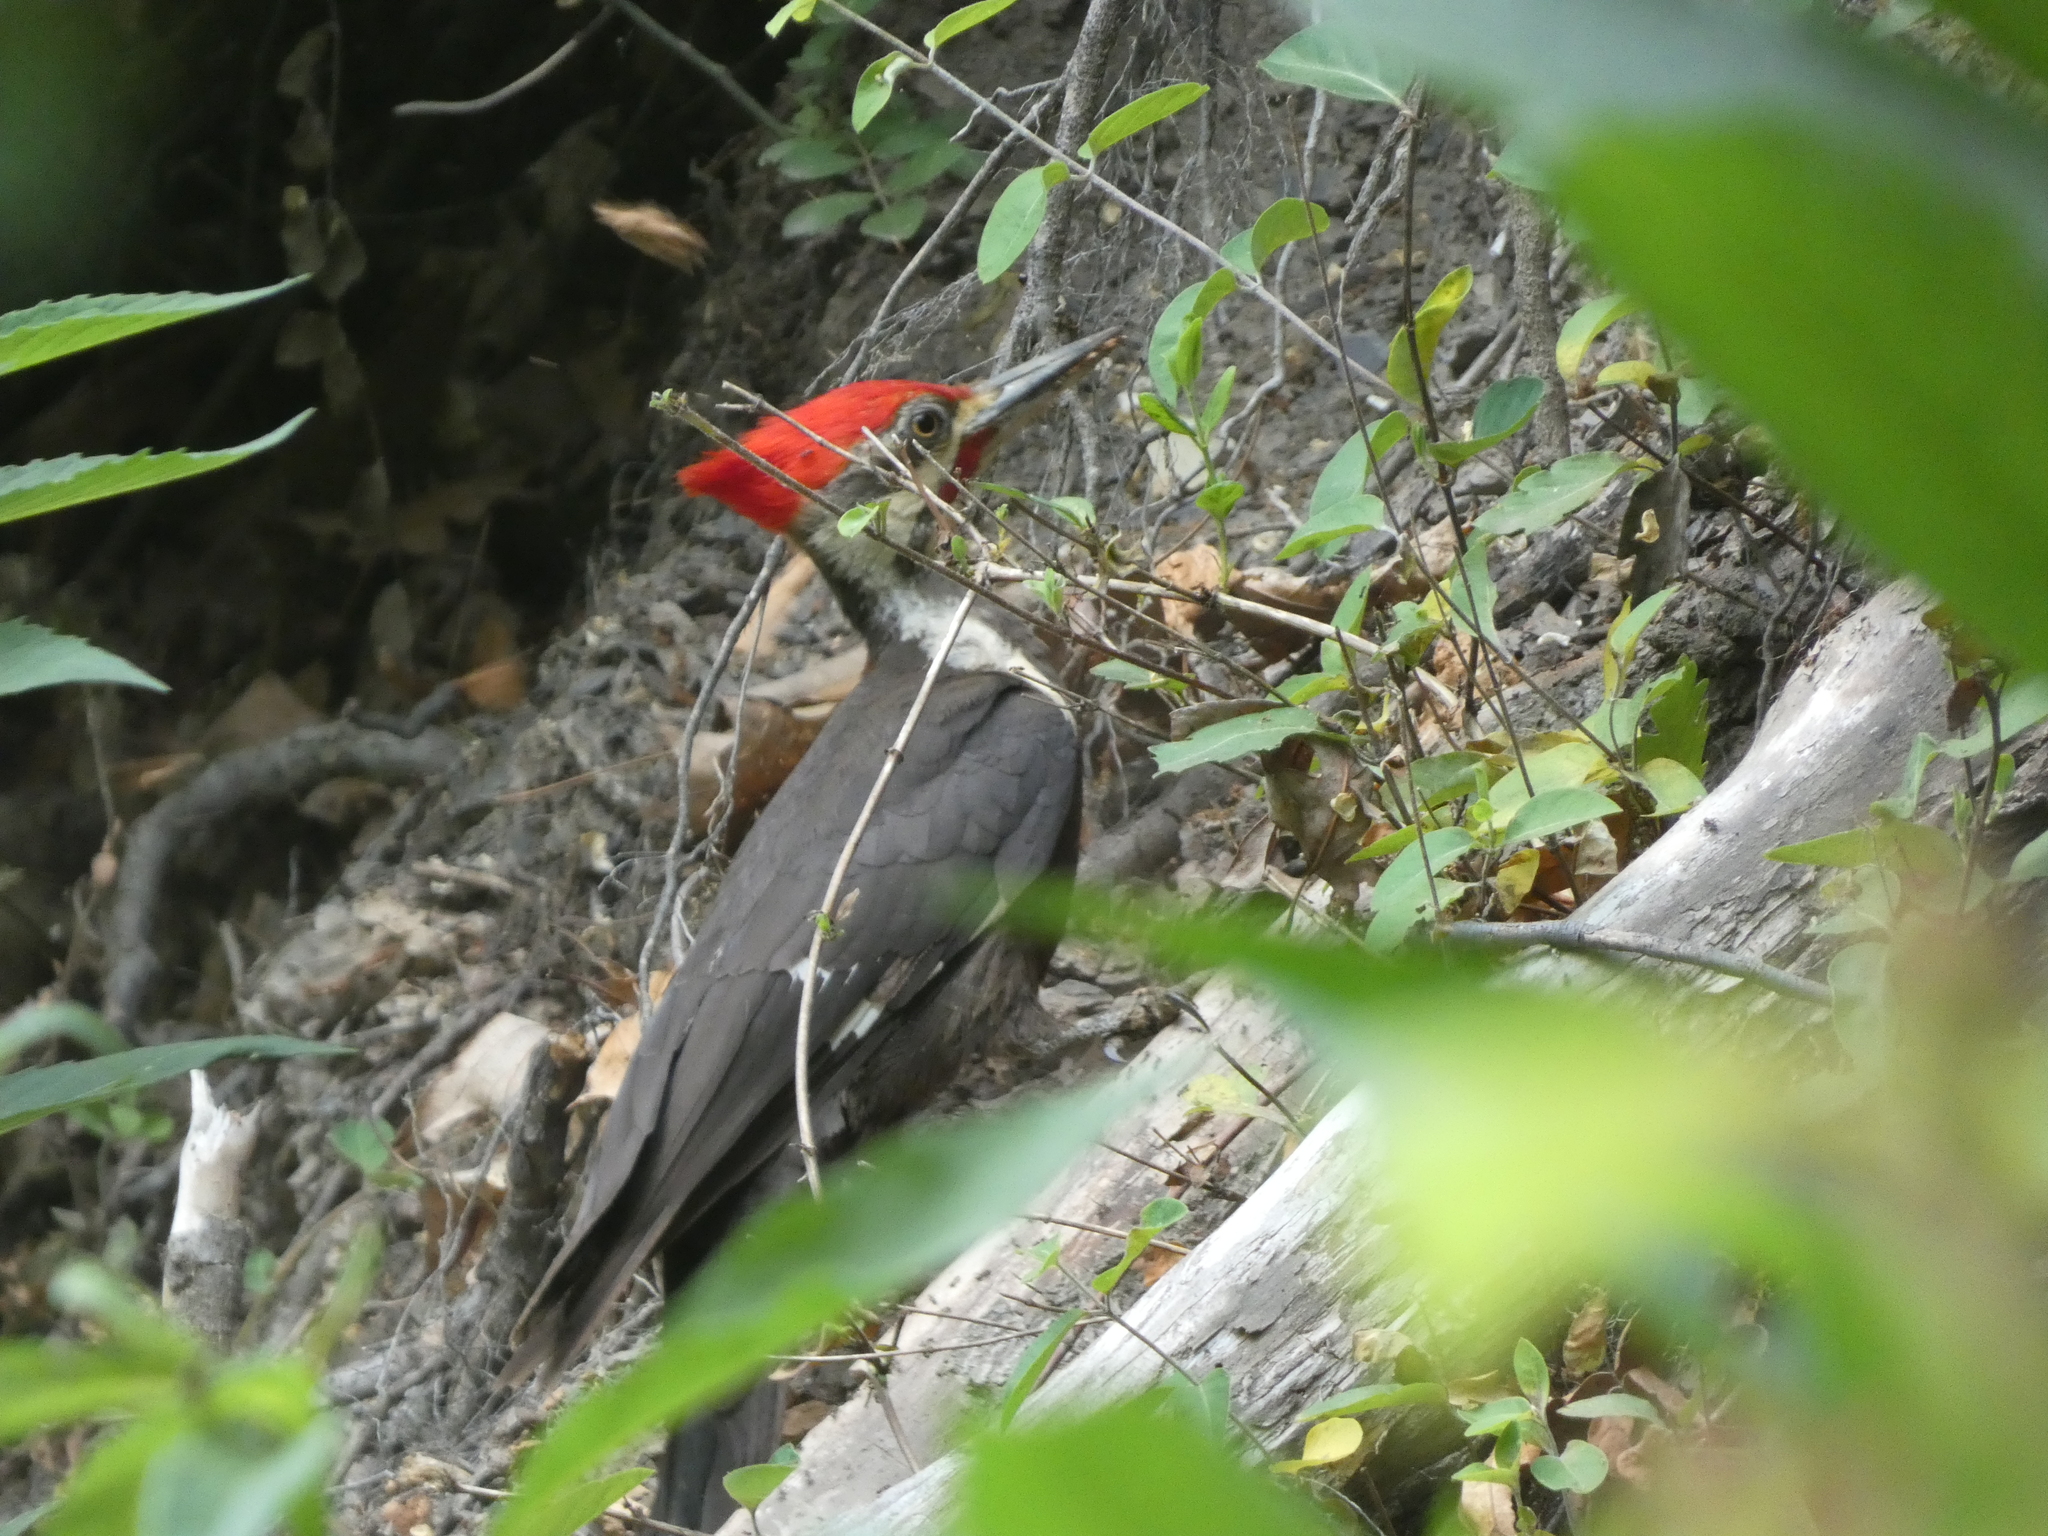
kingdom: Animalia
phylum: Chordata
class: Aves
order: Piciformes
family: Picidae
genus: Dryocopus
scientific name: Dryocopus pileatus
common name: Pileated woodpecker
